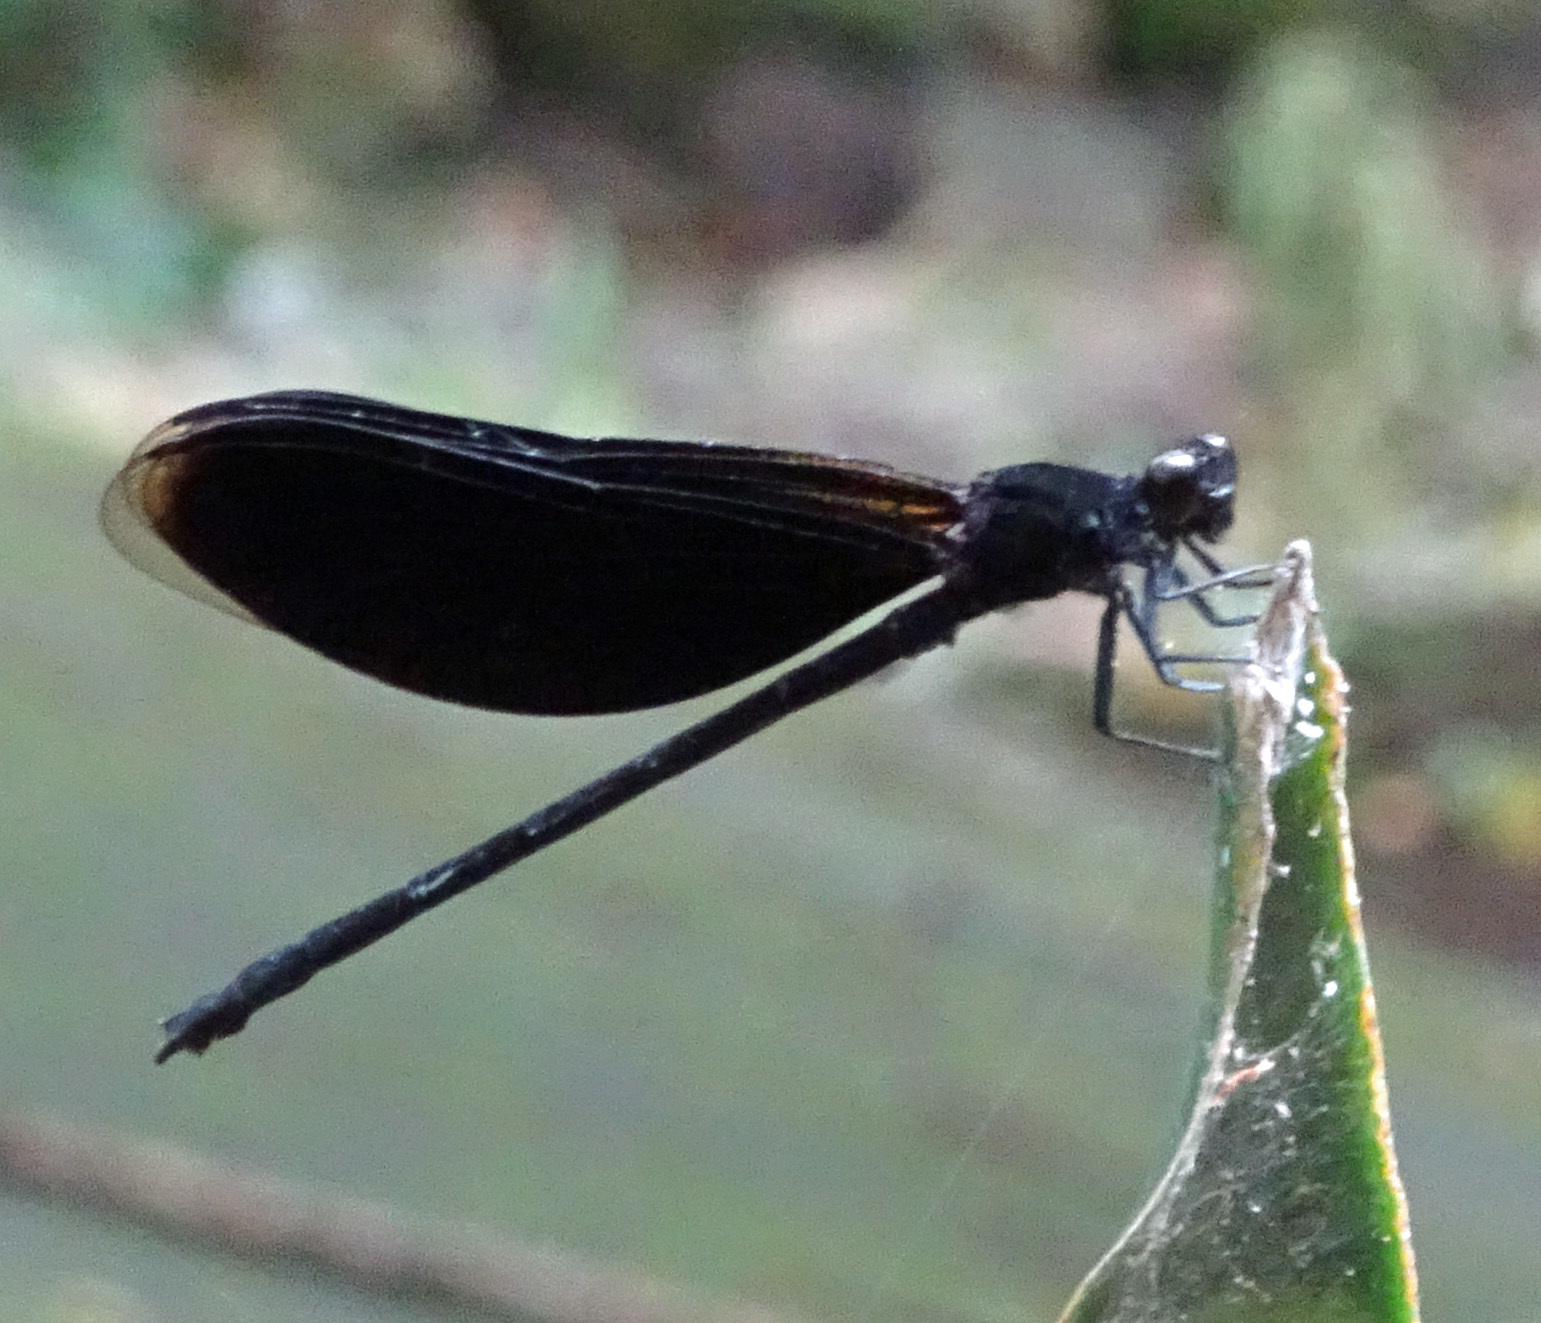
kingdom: Animalia
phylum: Arthropoda
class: Insecta
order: Odonata
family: Euphaeidae
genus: Euphaea
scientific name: Euphaea masoni
